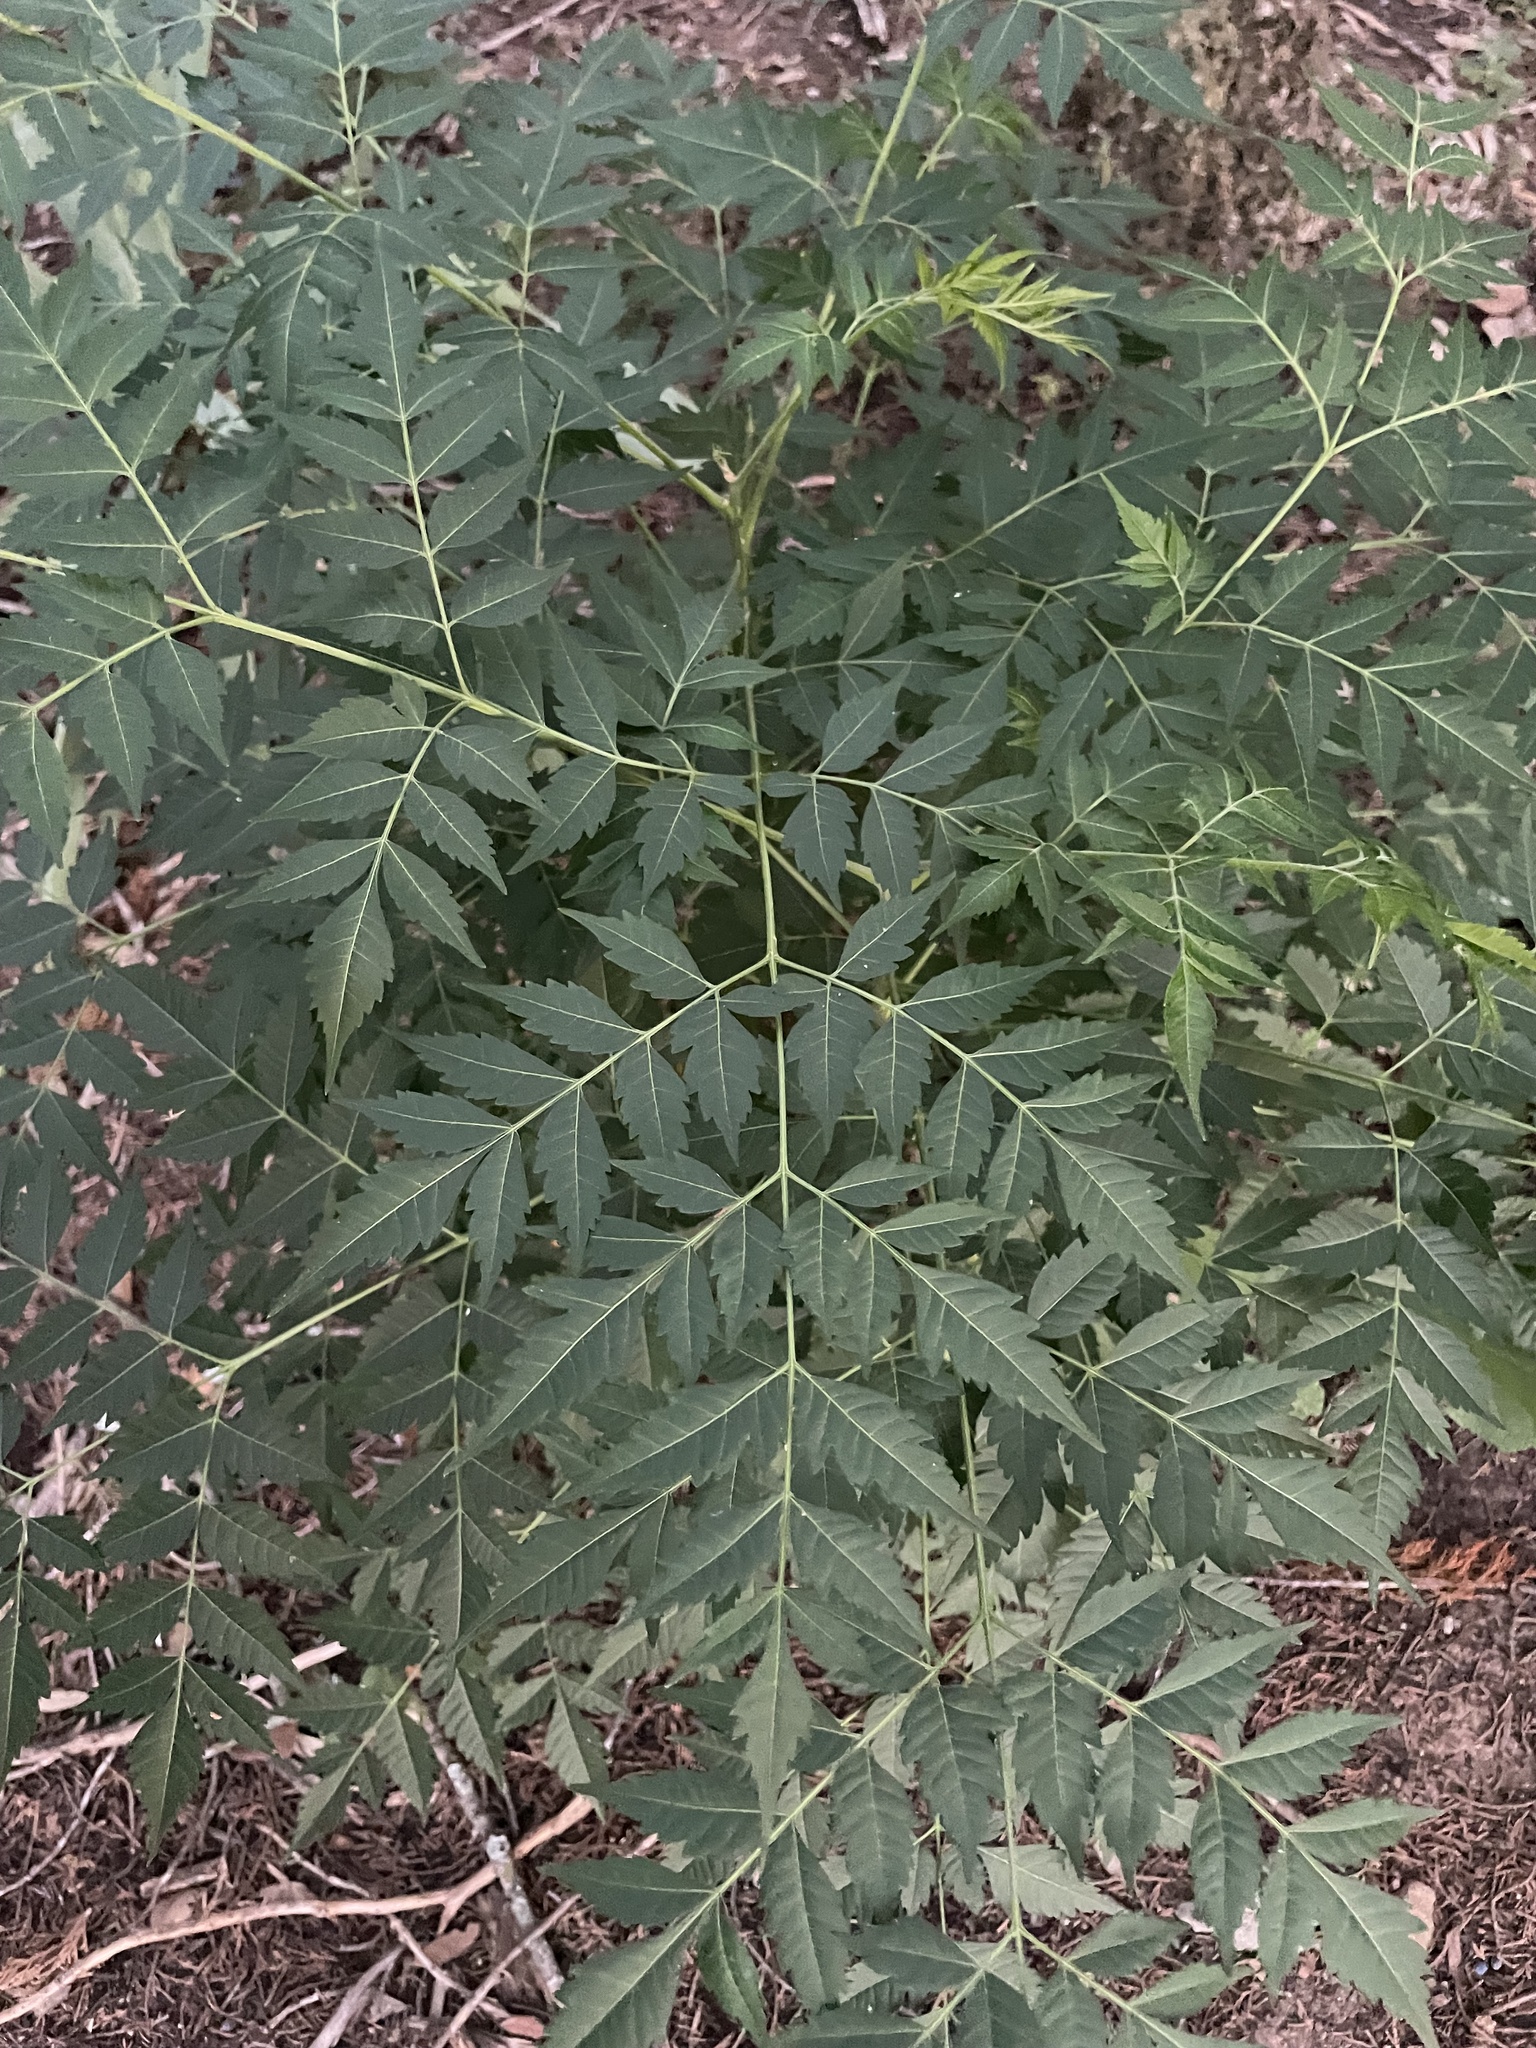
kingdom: Plantae
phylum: Tracheophyta
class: Magnoliopsida
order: Sapindales
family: Meliaceae
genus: Melia
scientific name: Melia azedarach
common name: Chinaberrytree
